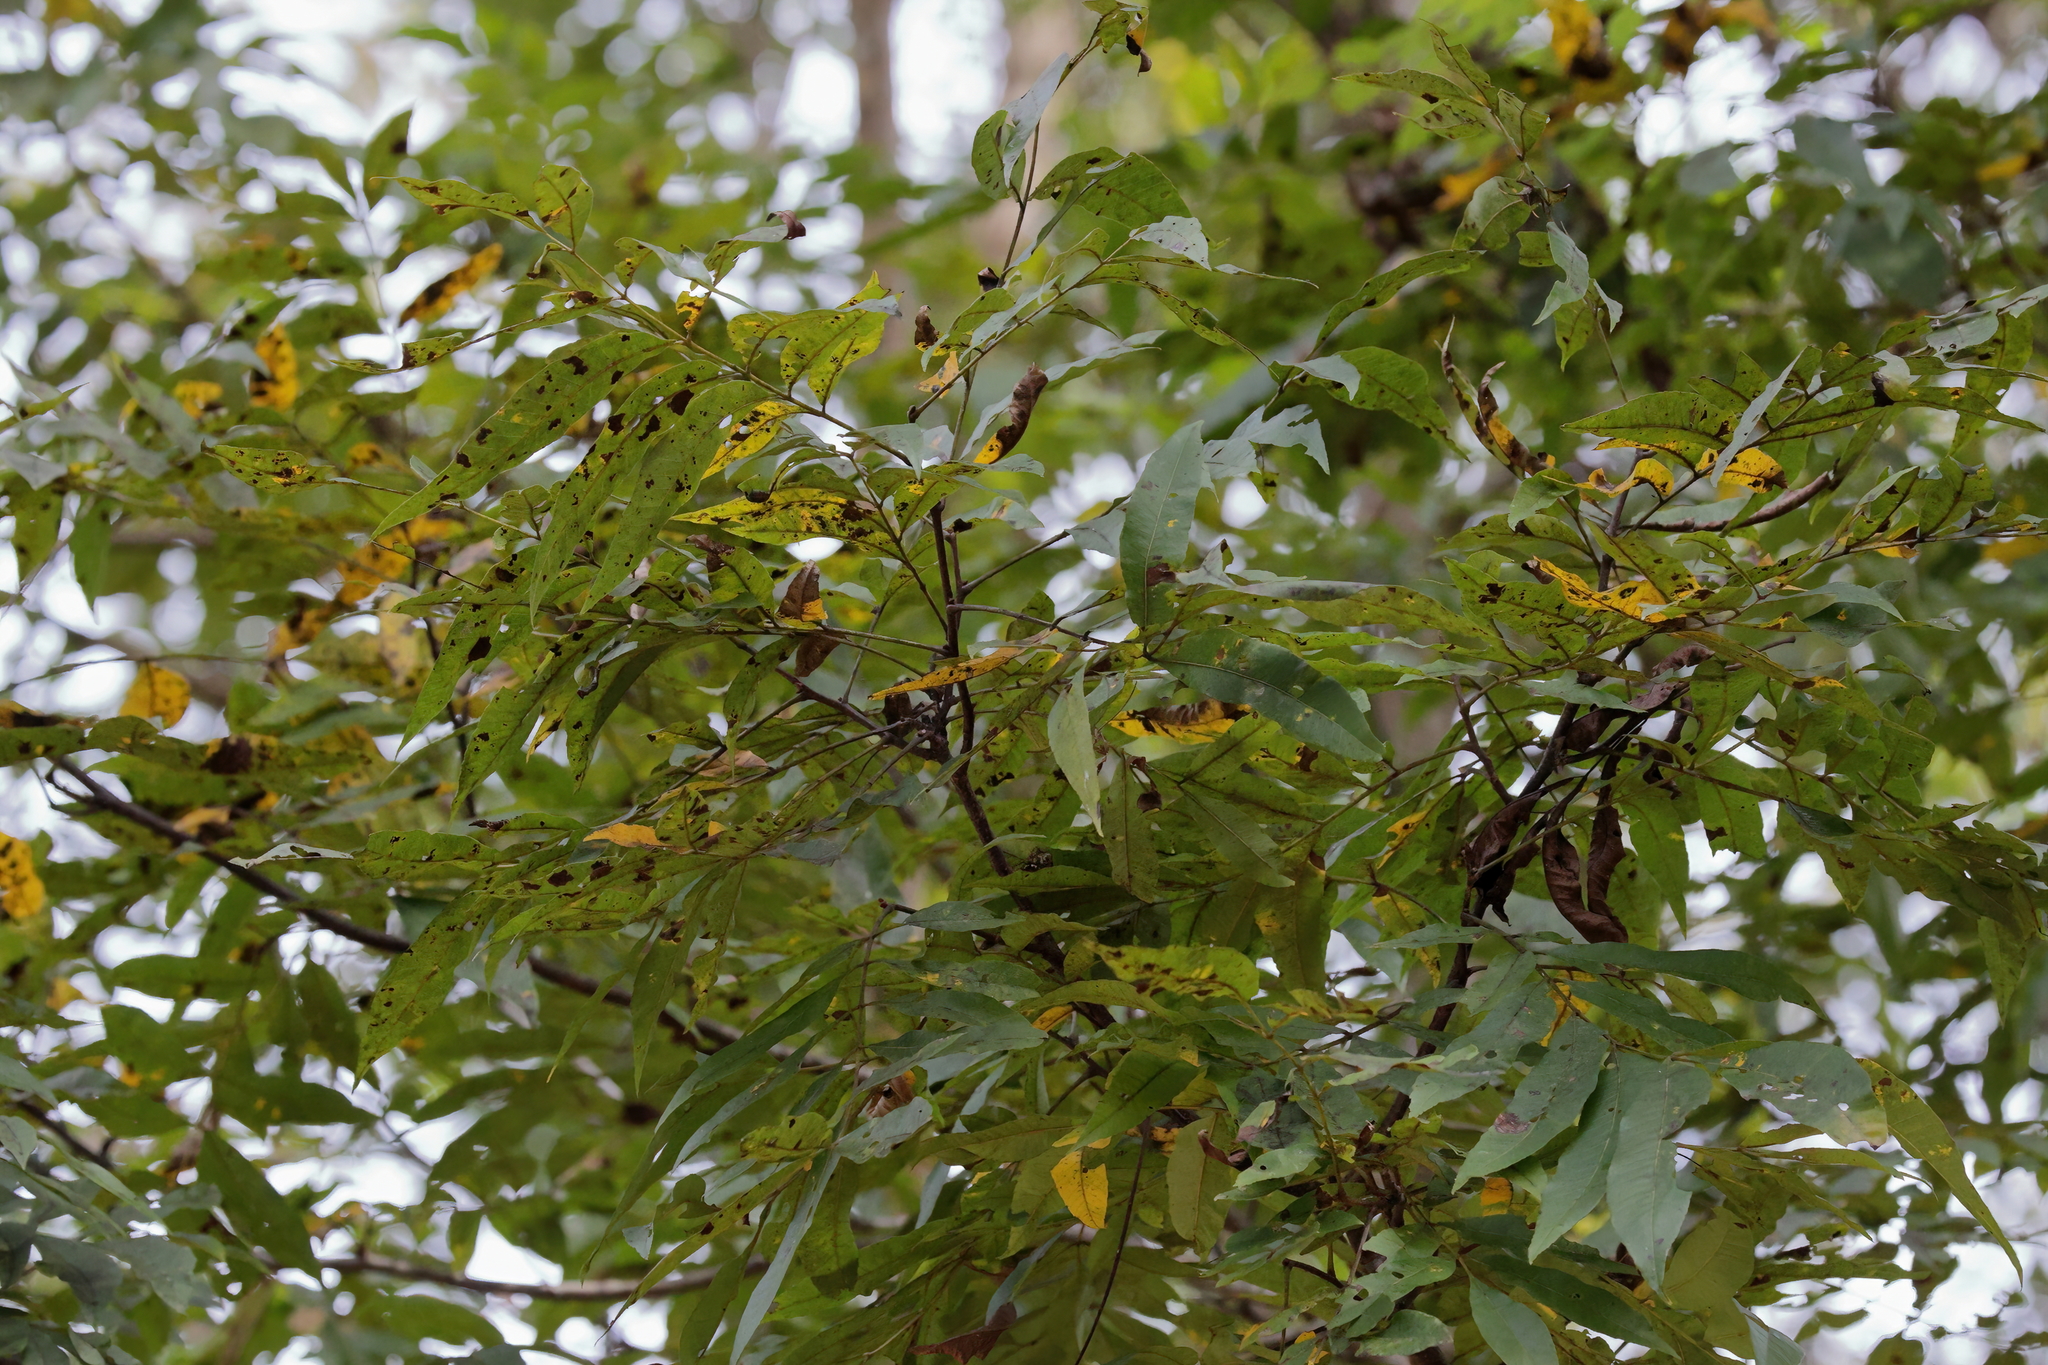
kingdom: Plantae
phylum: Tracheophyta
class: Magnoliopsida
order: Fagales
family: Juglandaceae
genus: Carya
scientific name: Carya aquatica
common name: Water hickory
